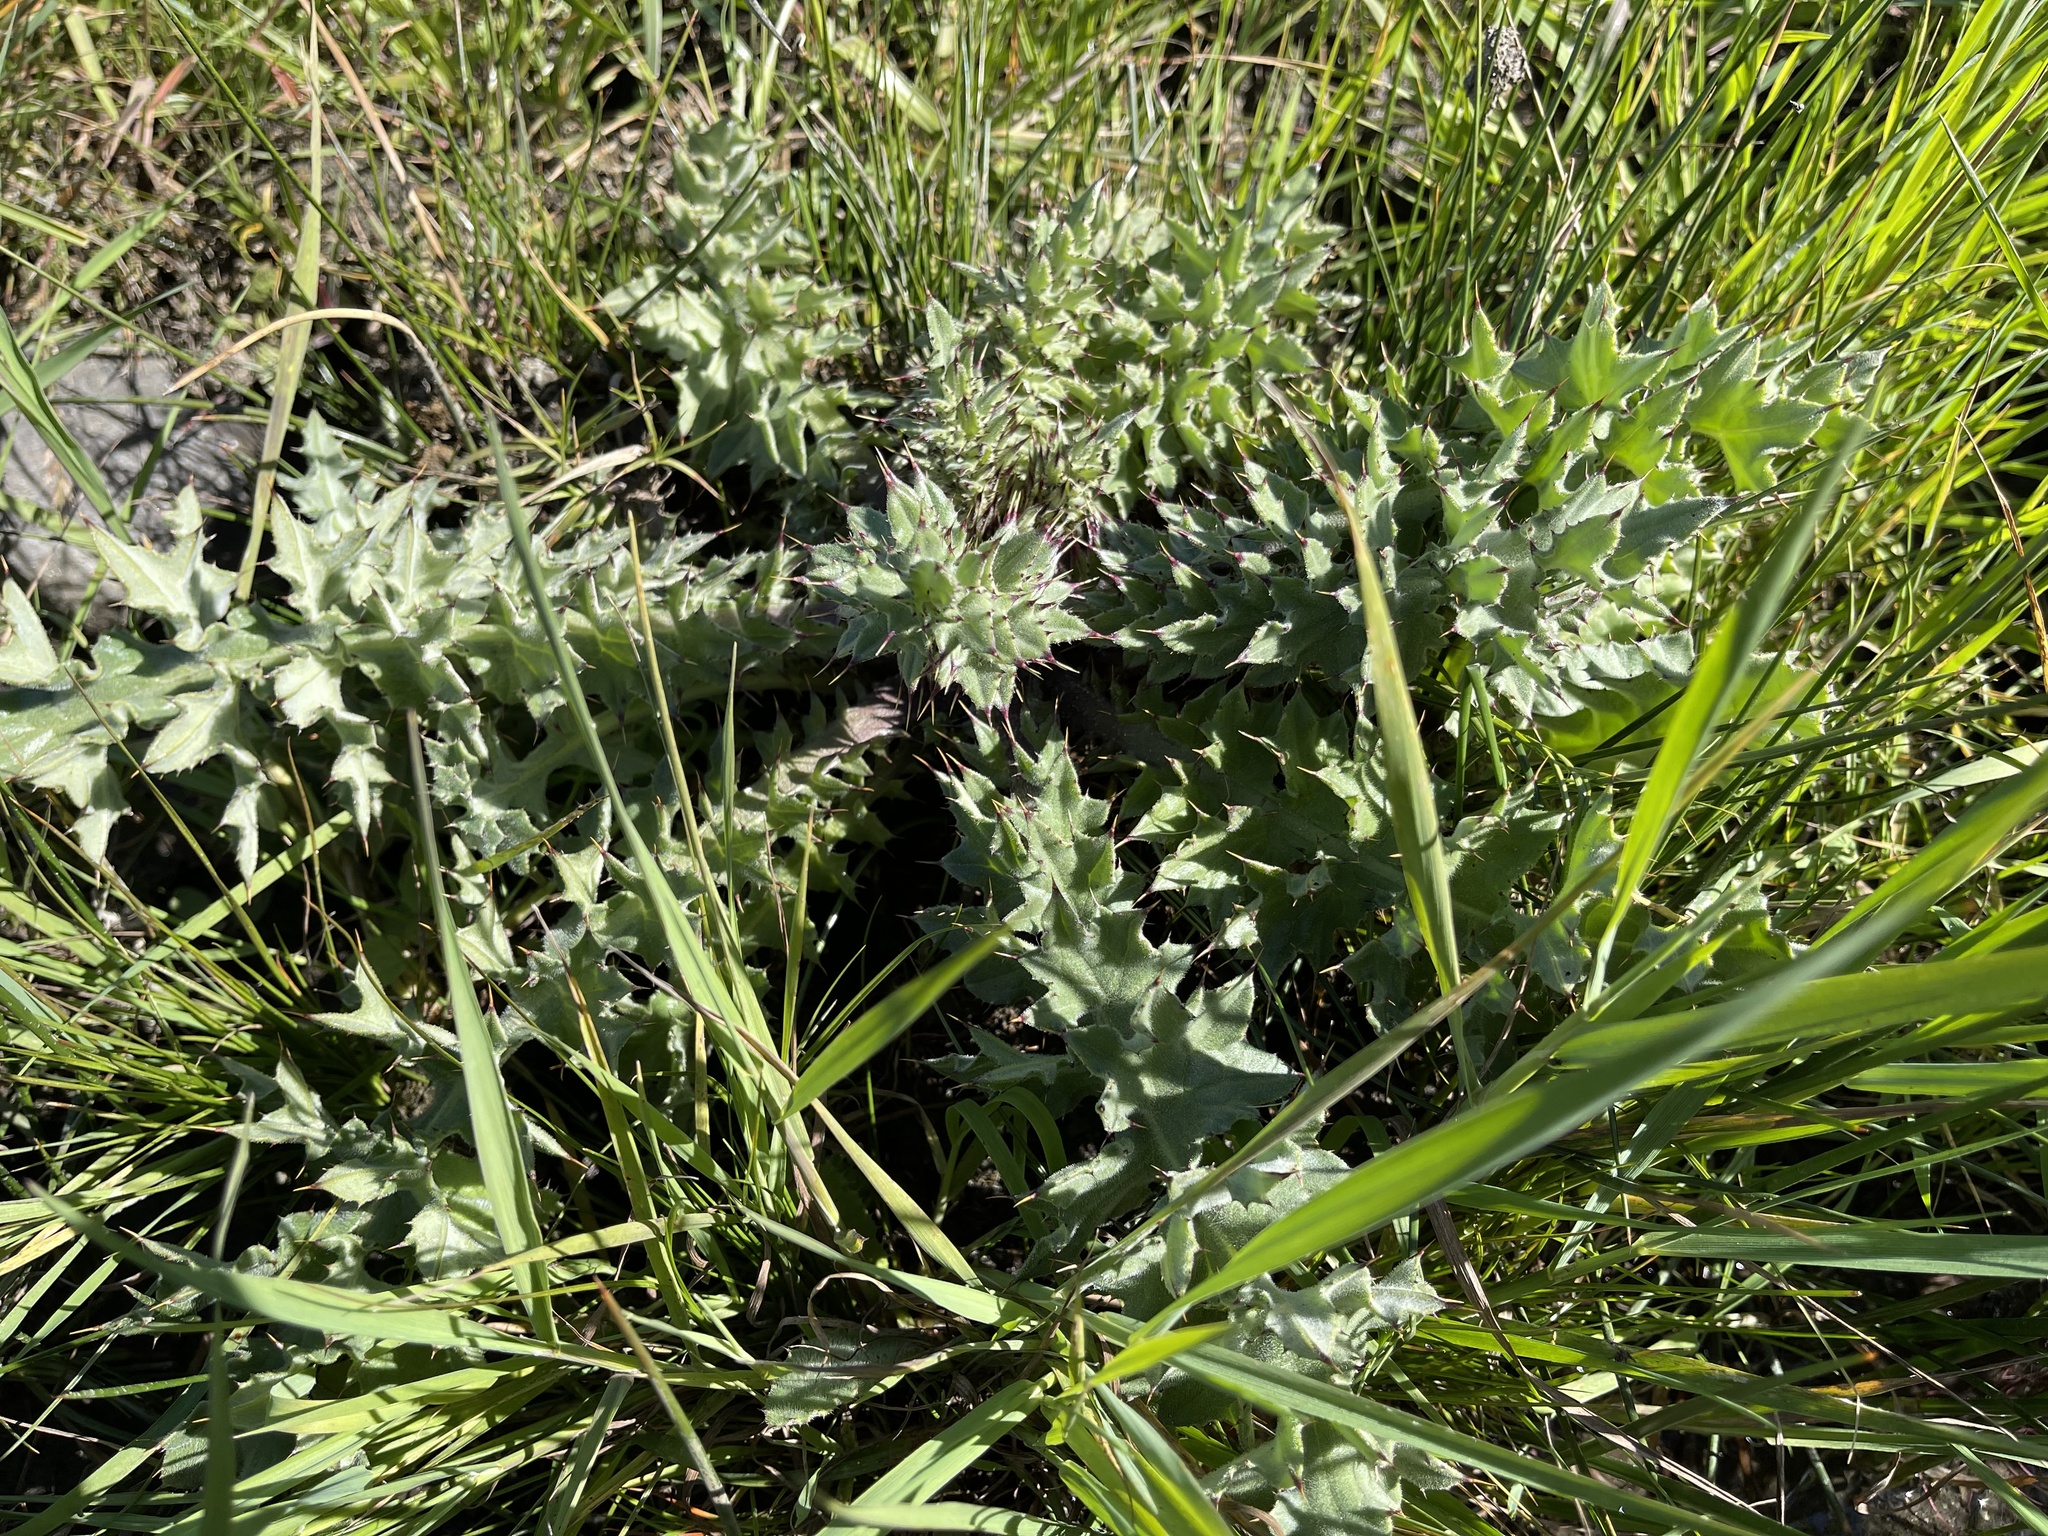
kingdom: Plantae
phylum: Tracheophyta
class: Magnoliopsida
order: Asterales
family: Asteraceae
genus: Cirsium
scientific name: Cirsium fontinale
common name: Fountain thistle
